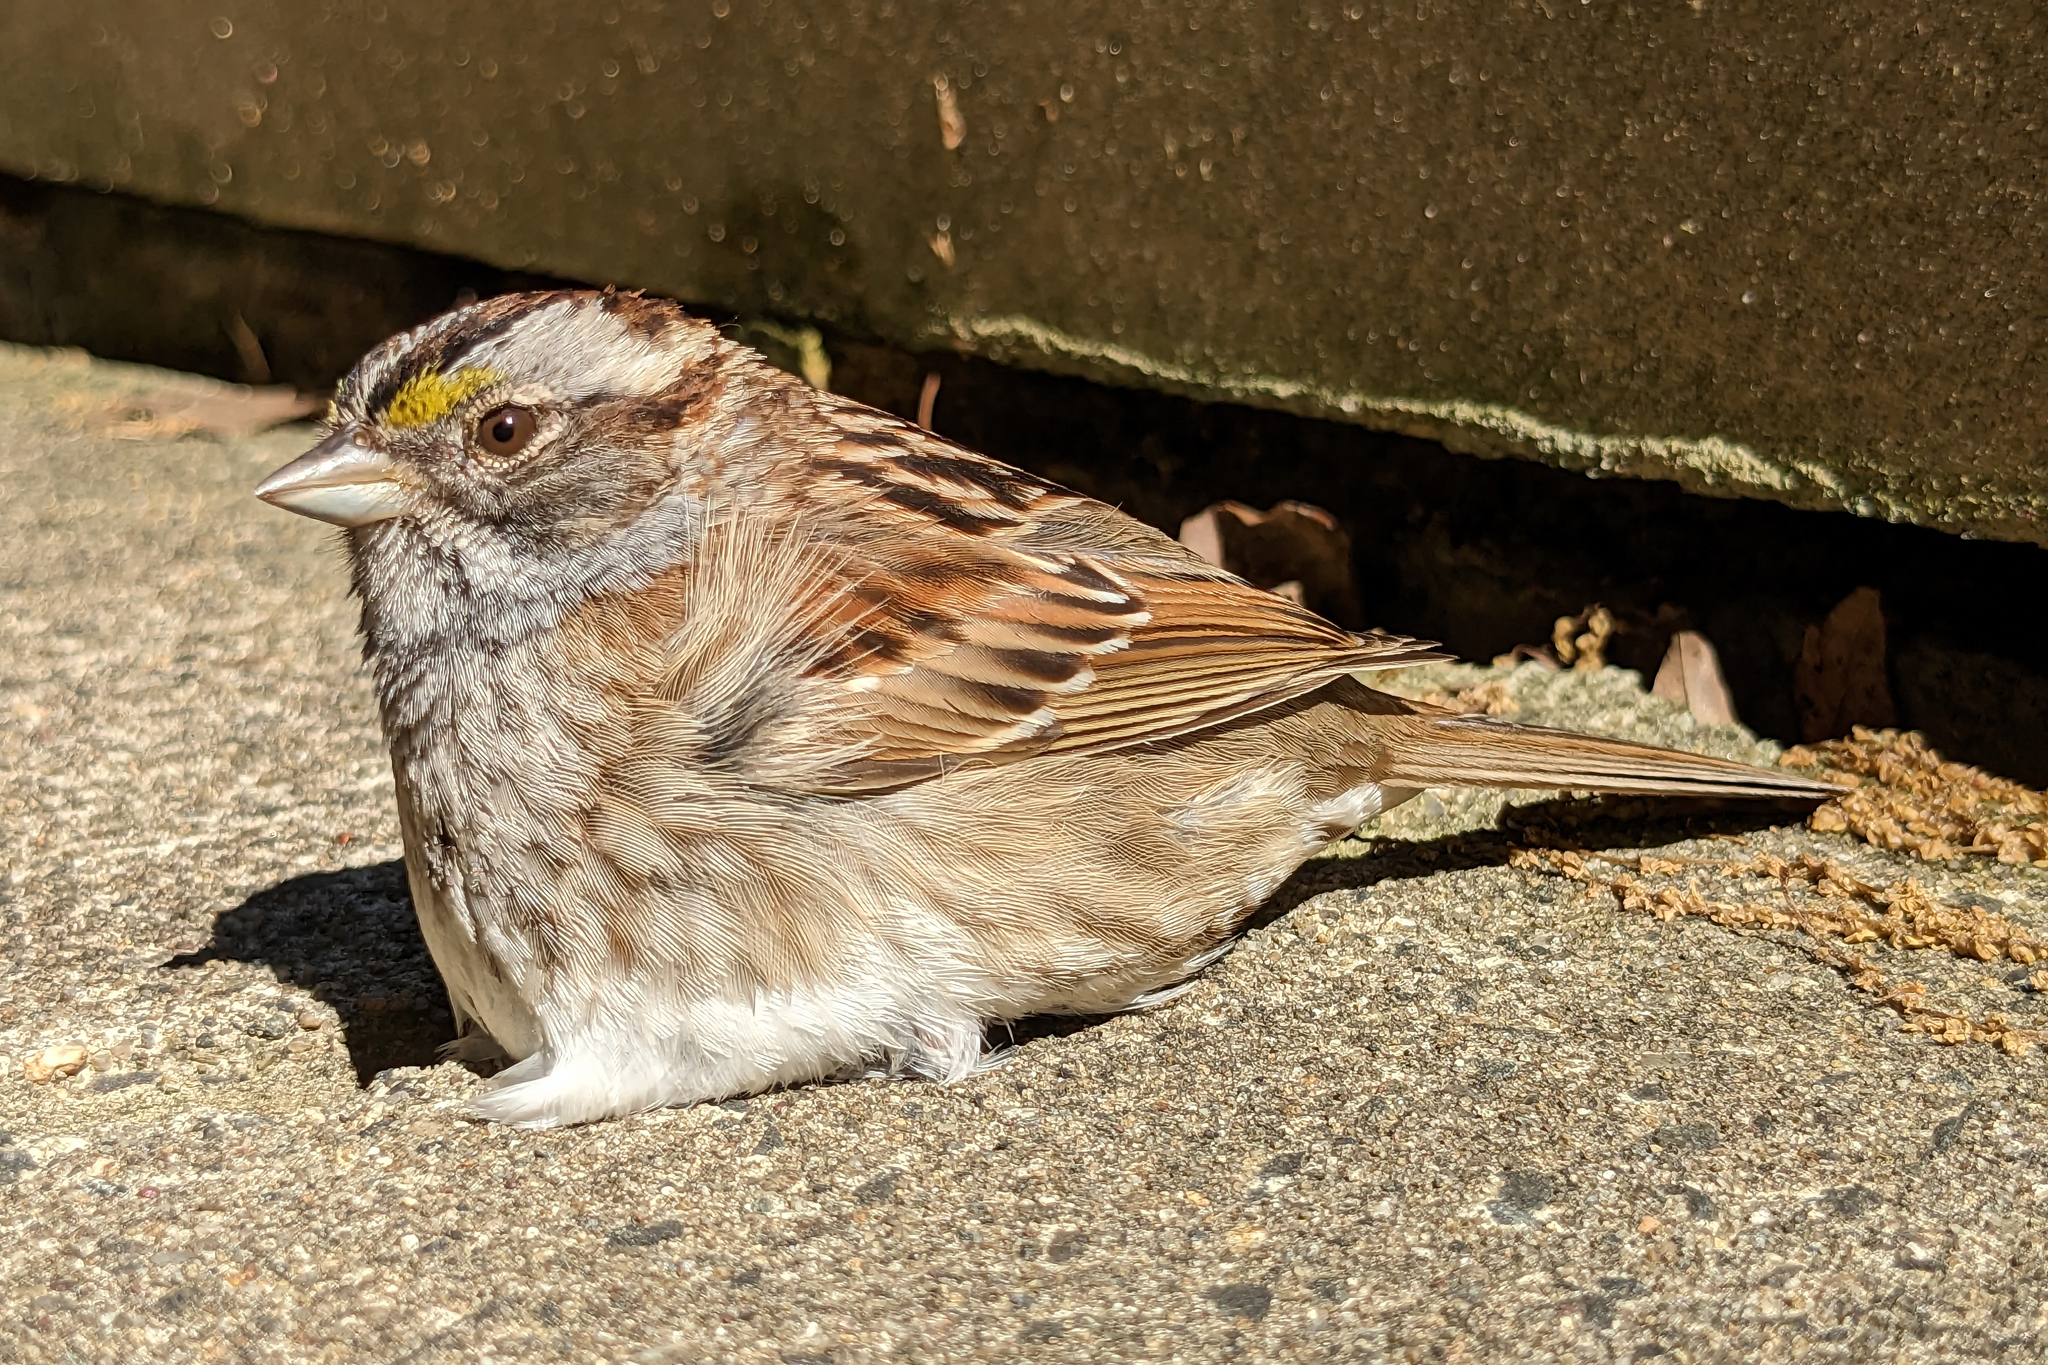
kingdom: Animalia
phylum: Chordata
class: Aves
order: Passeriformes
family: Passerellidae
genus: Zonotrichia
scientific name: Zonotrichia albicollis
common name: White-throated sparrow
